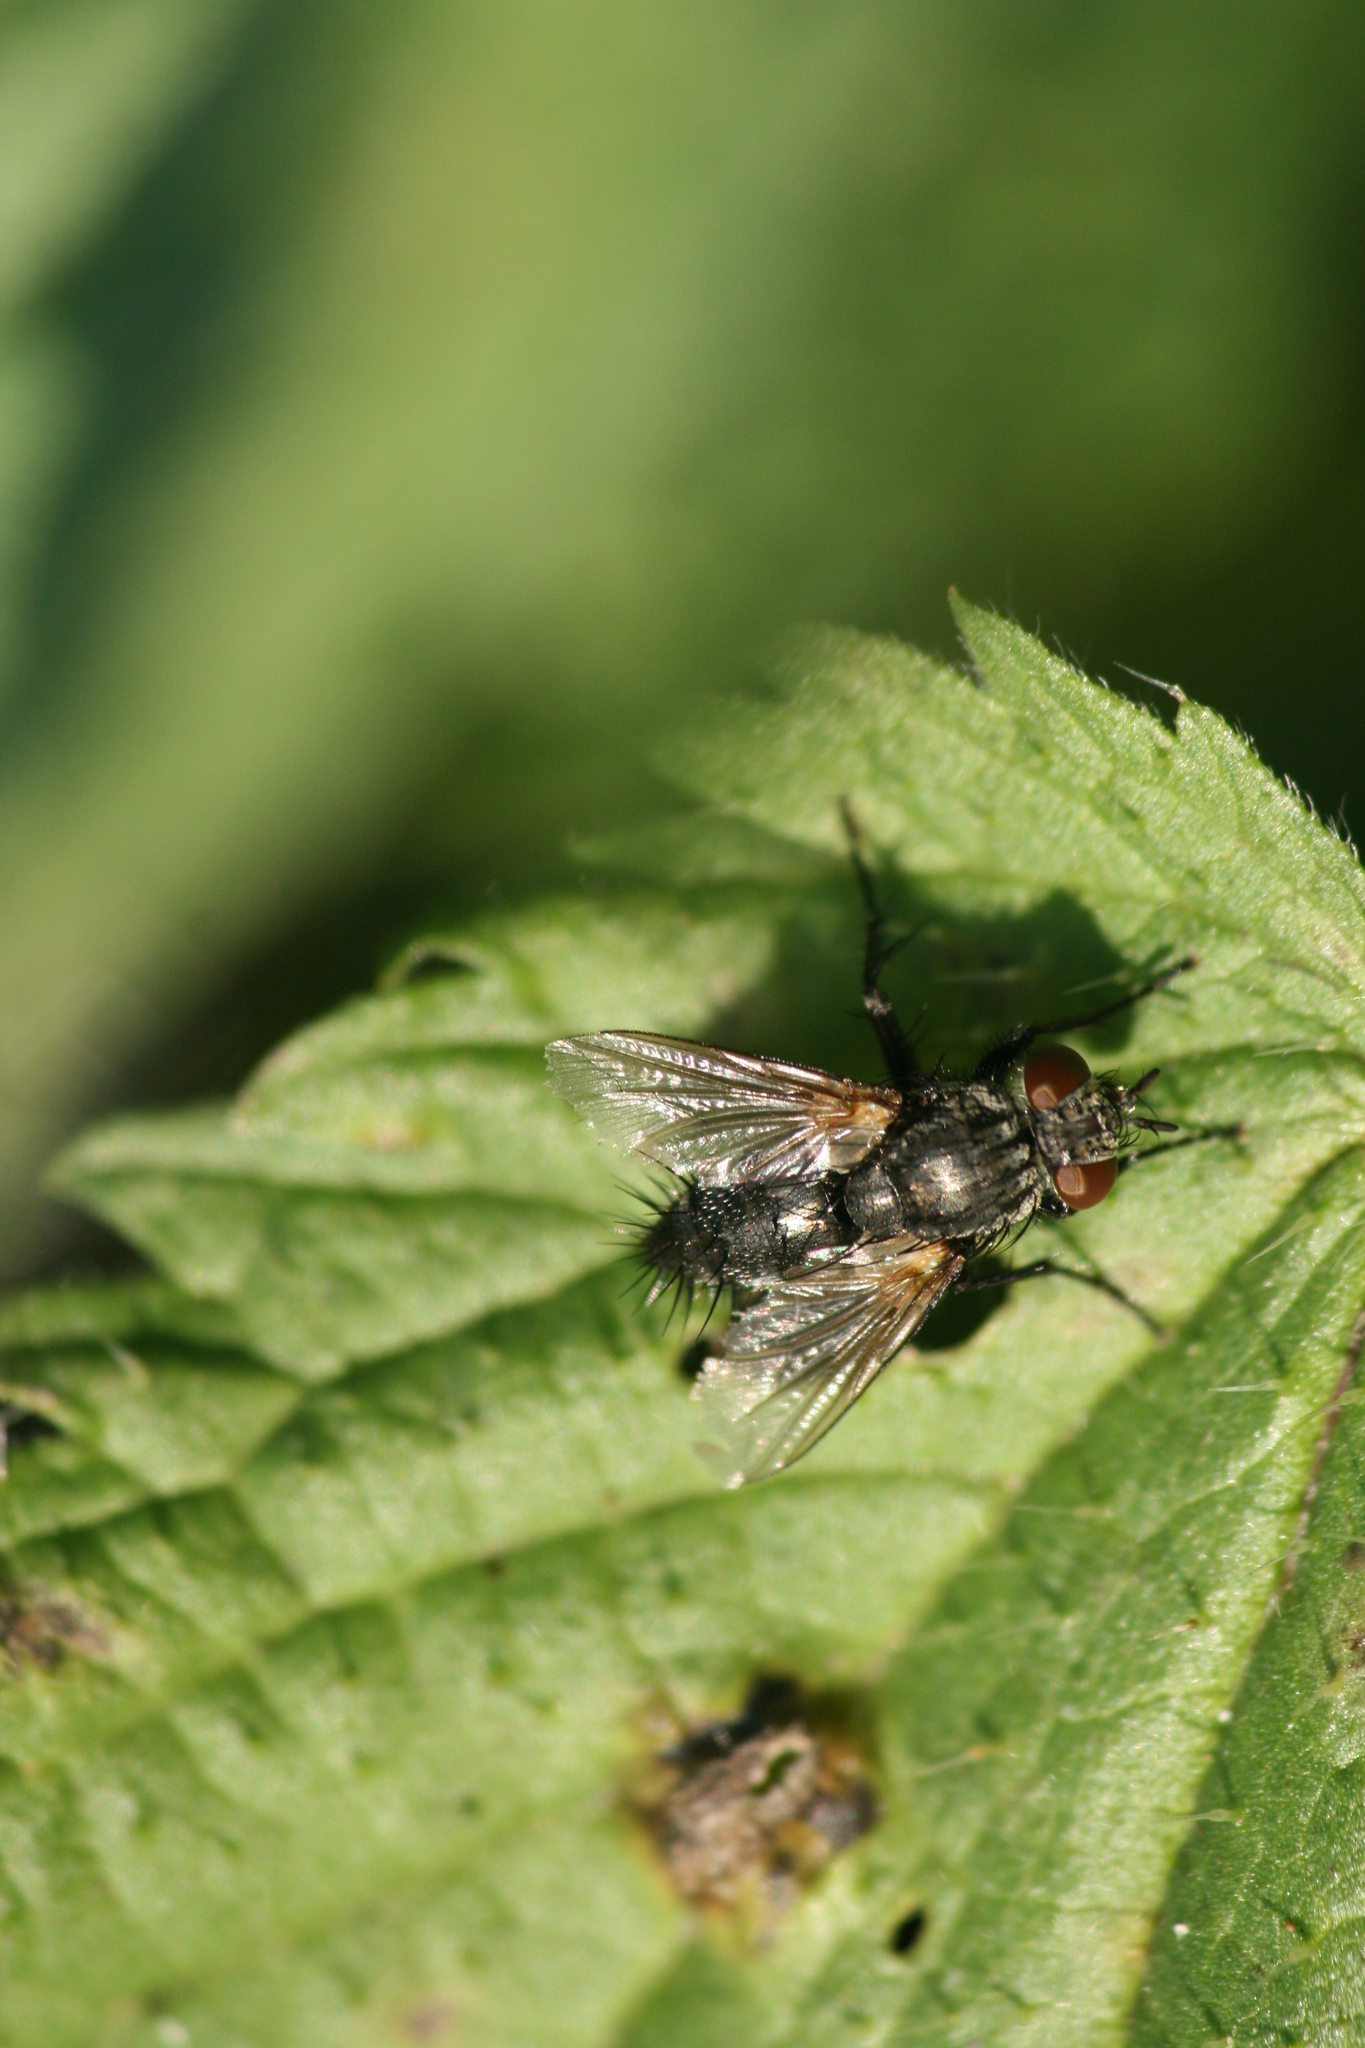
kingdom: Animalia
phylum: Arthropoda
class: Insecta
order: Diptera
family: Tachinidae
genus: Voria
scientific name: Voria ruralis
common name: Parasitic fly
